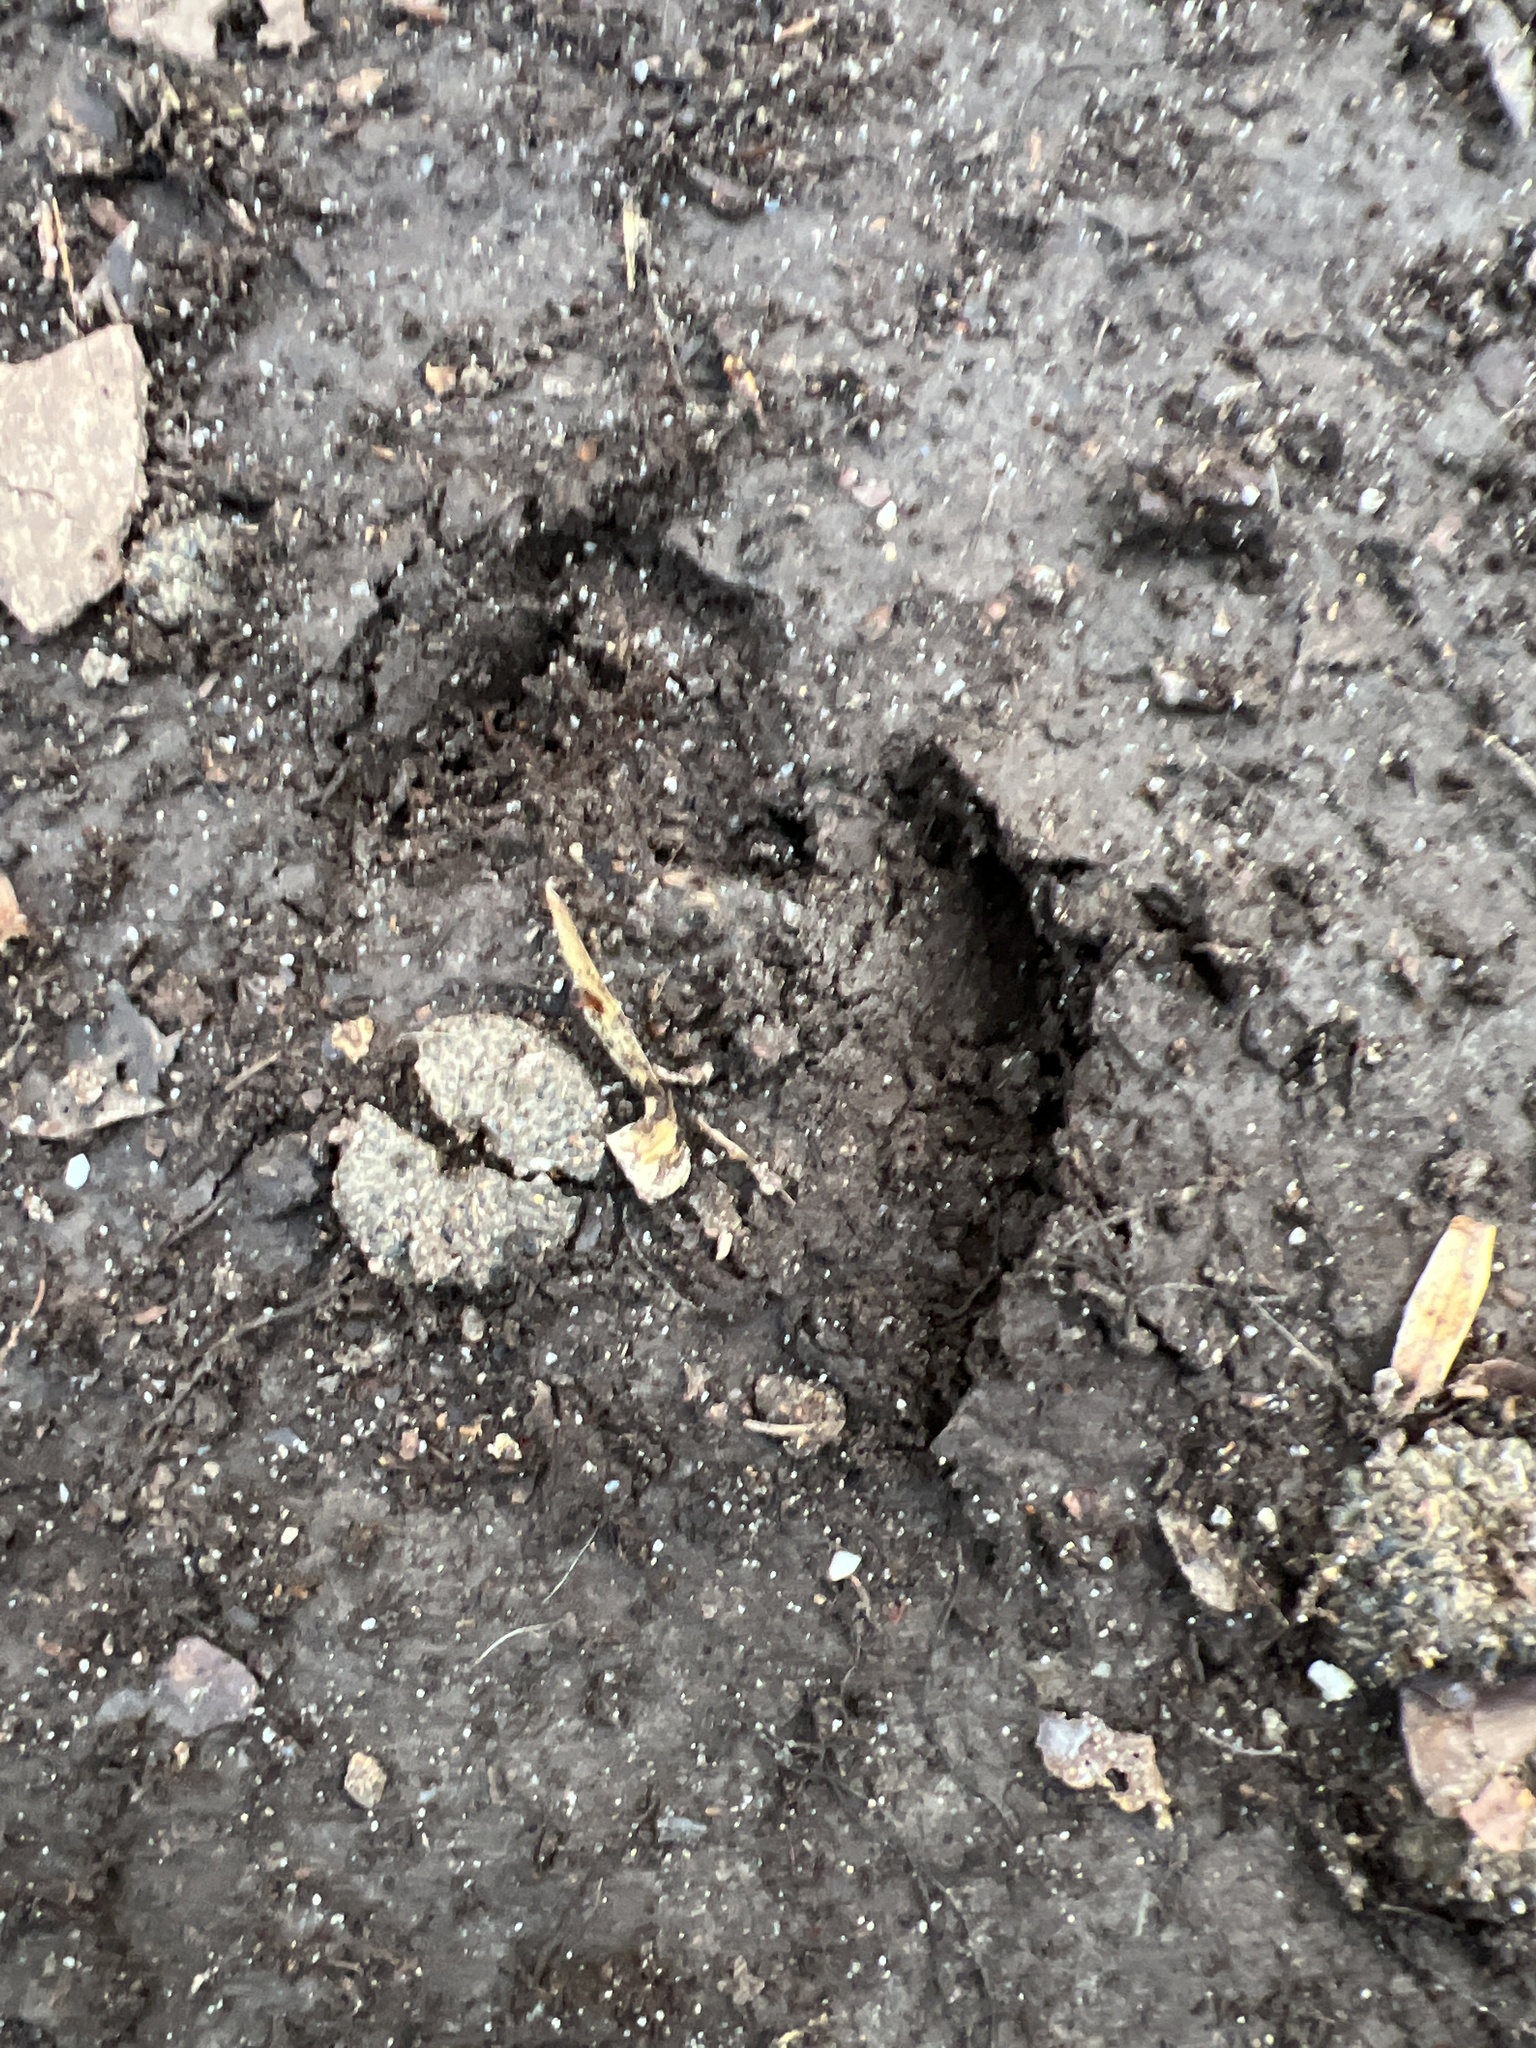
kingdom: Animalia
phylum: Chordata
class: Mammalia
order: Artiodactyla
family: Cervidae
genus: Odocoileus
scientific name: Odocoileus virginianus
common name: White-tailed deer
